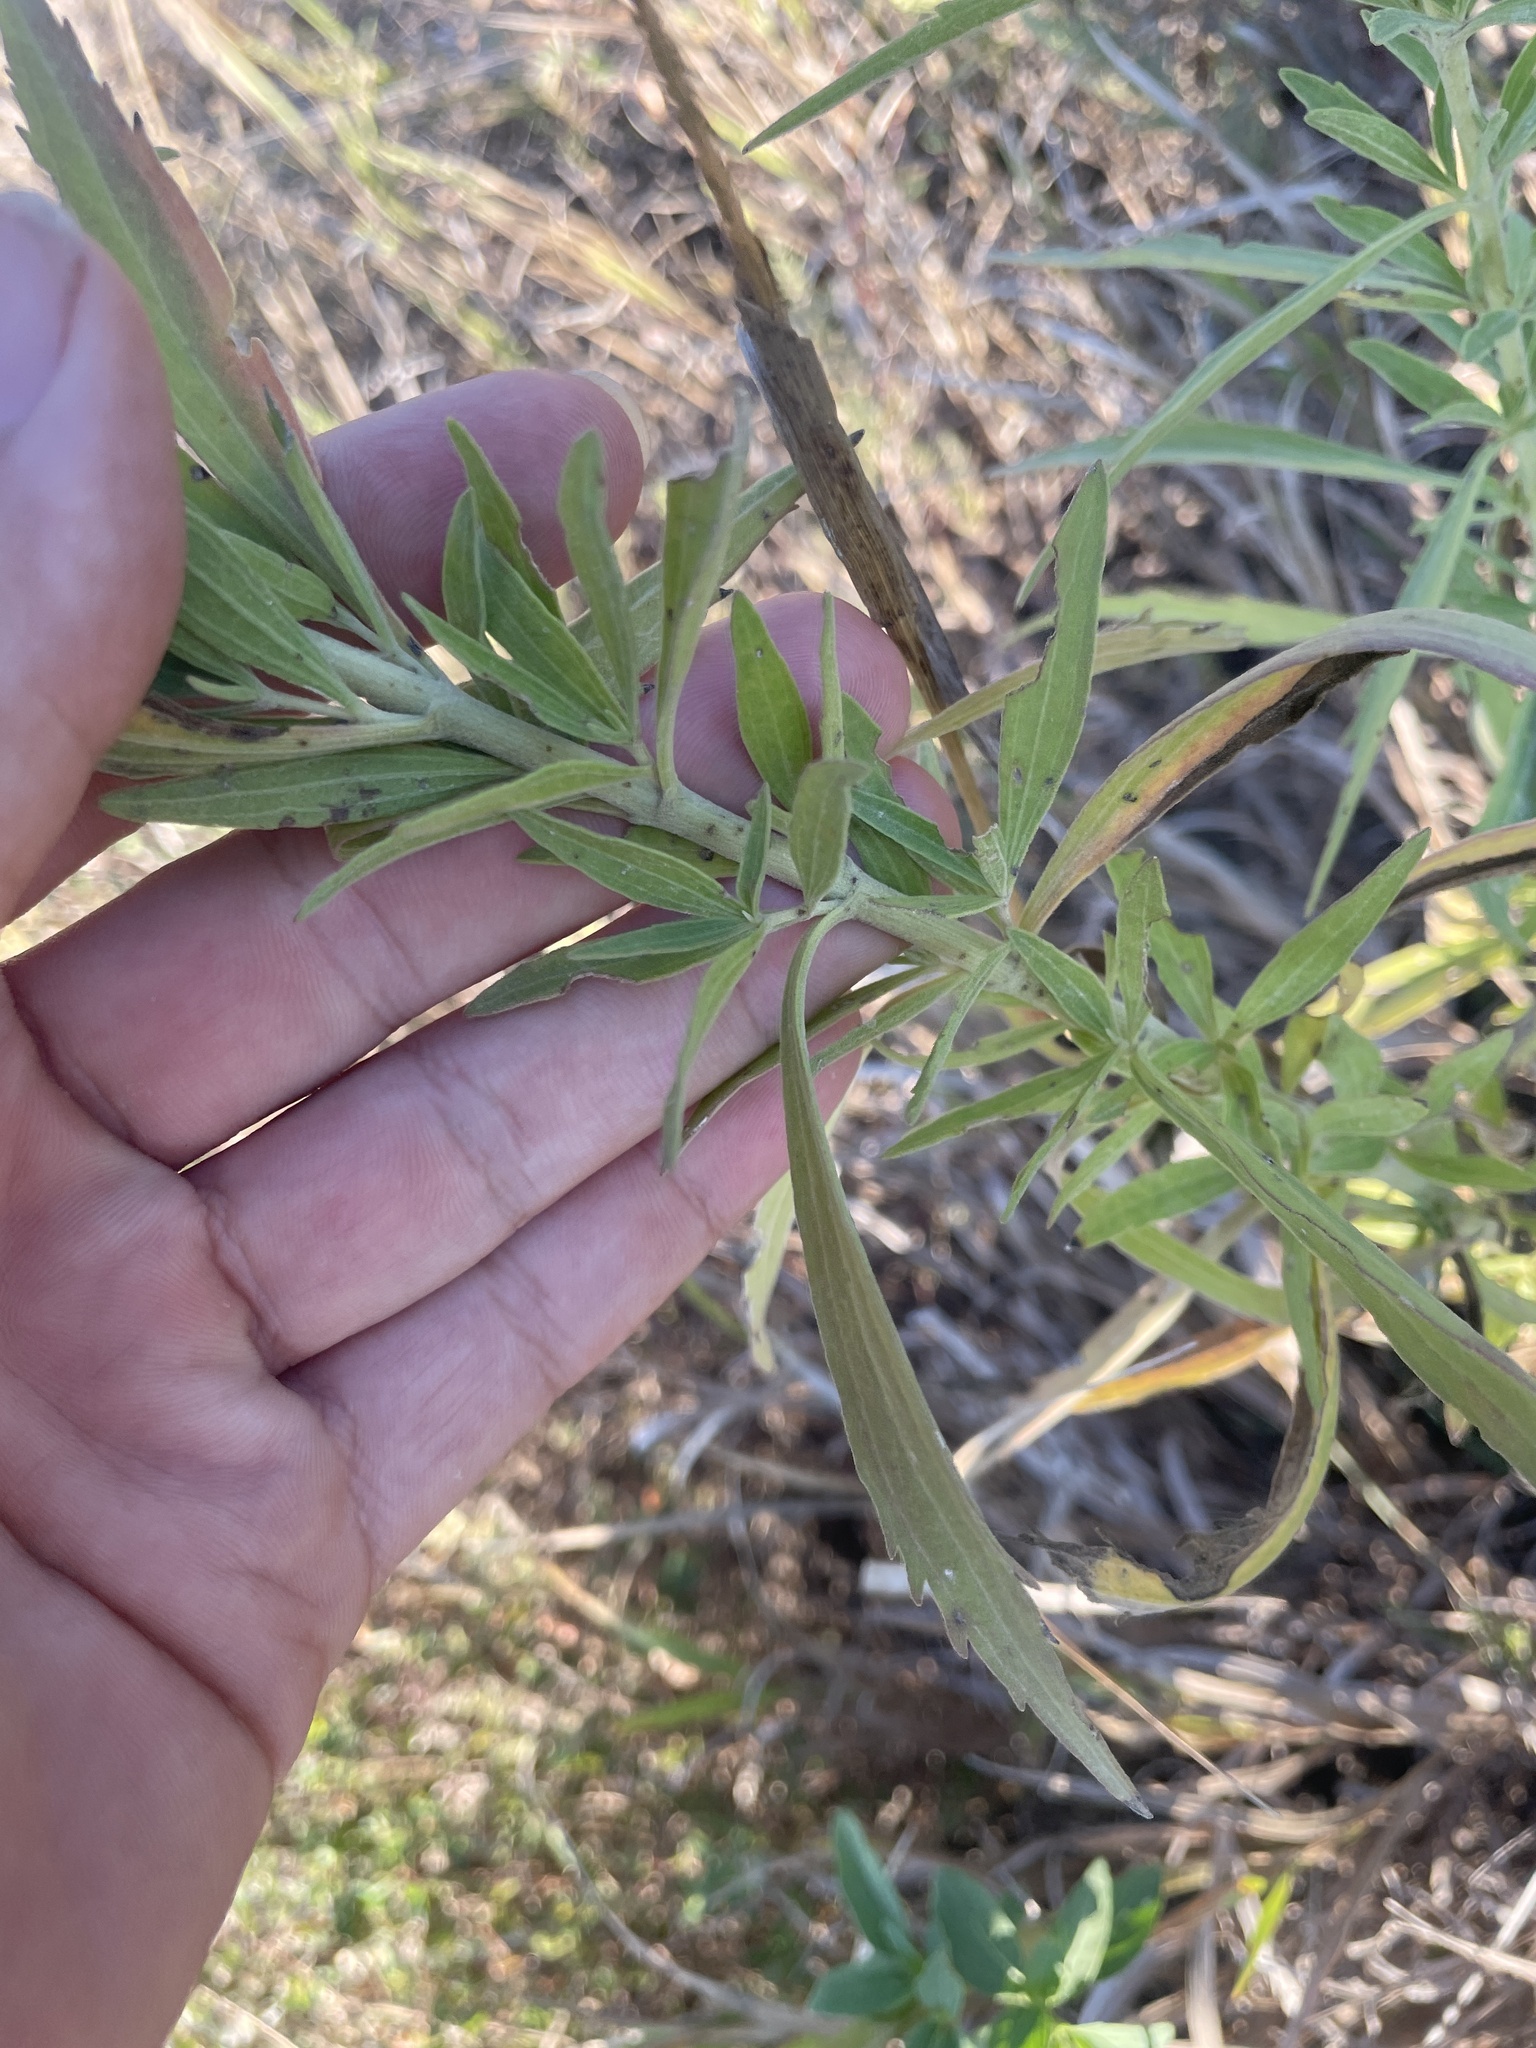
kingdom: Plantae
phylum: Tracheophyta
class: Magnoliopsida
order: Asterales
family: Asteraceae
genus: Eupatorium
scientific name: Eupatorium altissimum
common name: Tall thoroughwort
